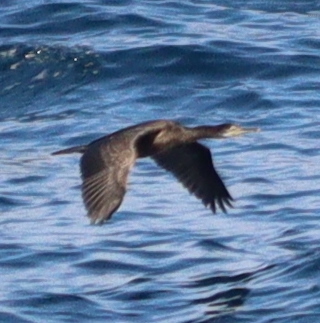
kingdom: Animalia
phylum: Chordata
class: Aves
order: Suliformes
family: Phalacrocoracidae
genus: Phalacrocorax
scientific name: Phalacrocorax aristotelis
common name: European shag
